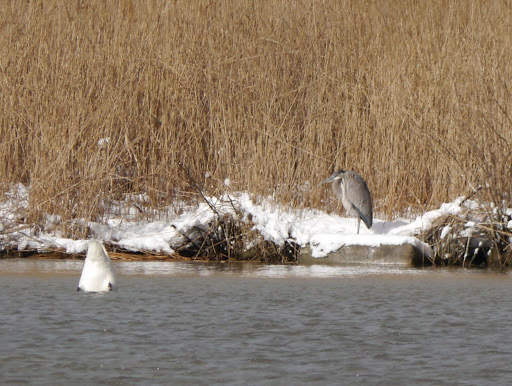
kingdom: Animalia
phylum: Chordata
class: Aves
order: Pelecaniformes
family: Ardeidae
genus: Ardea
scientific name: Ardea herodias
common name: Great blue heron
